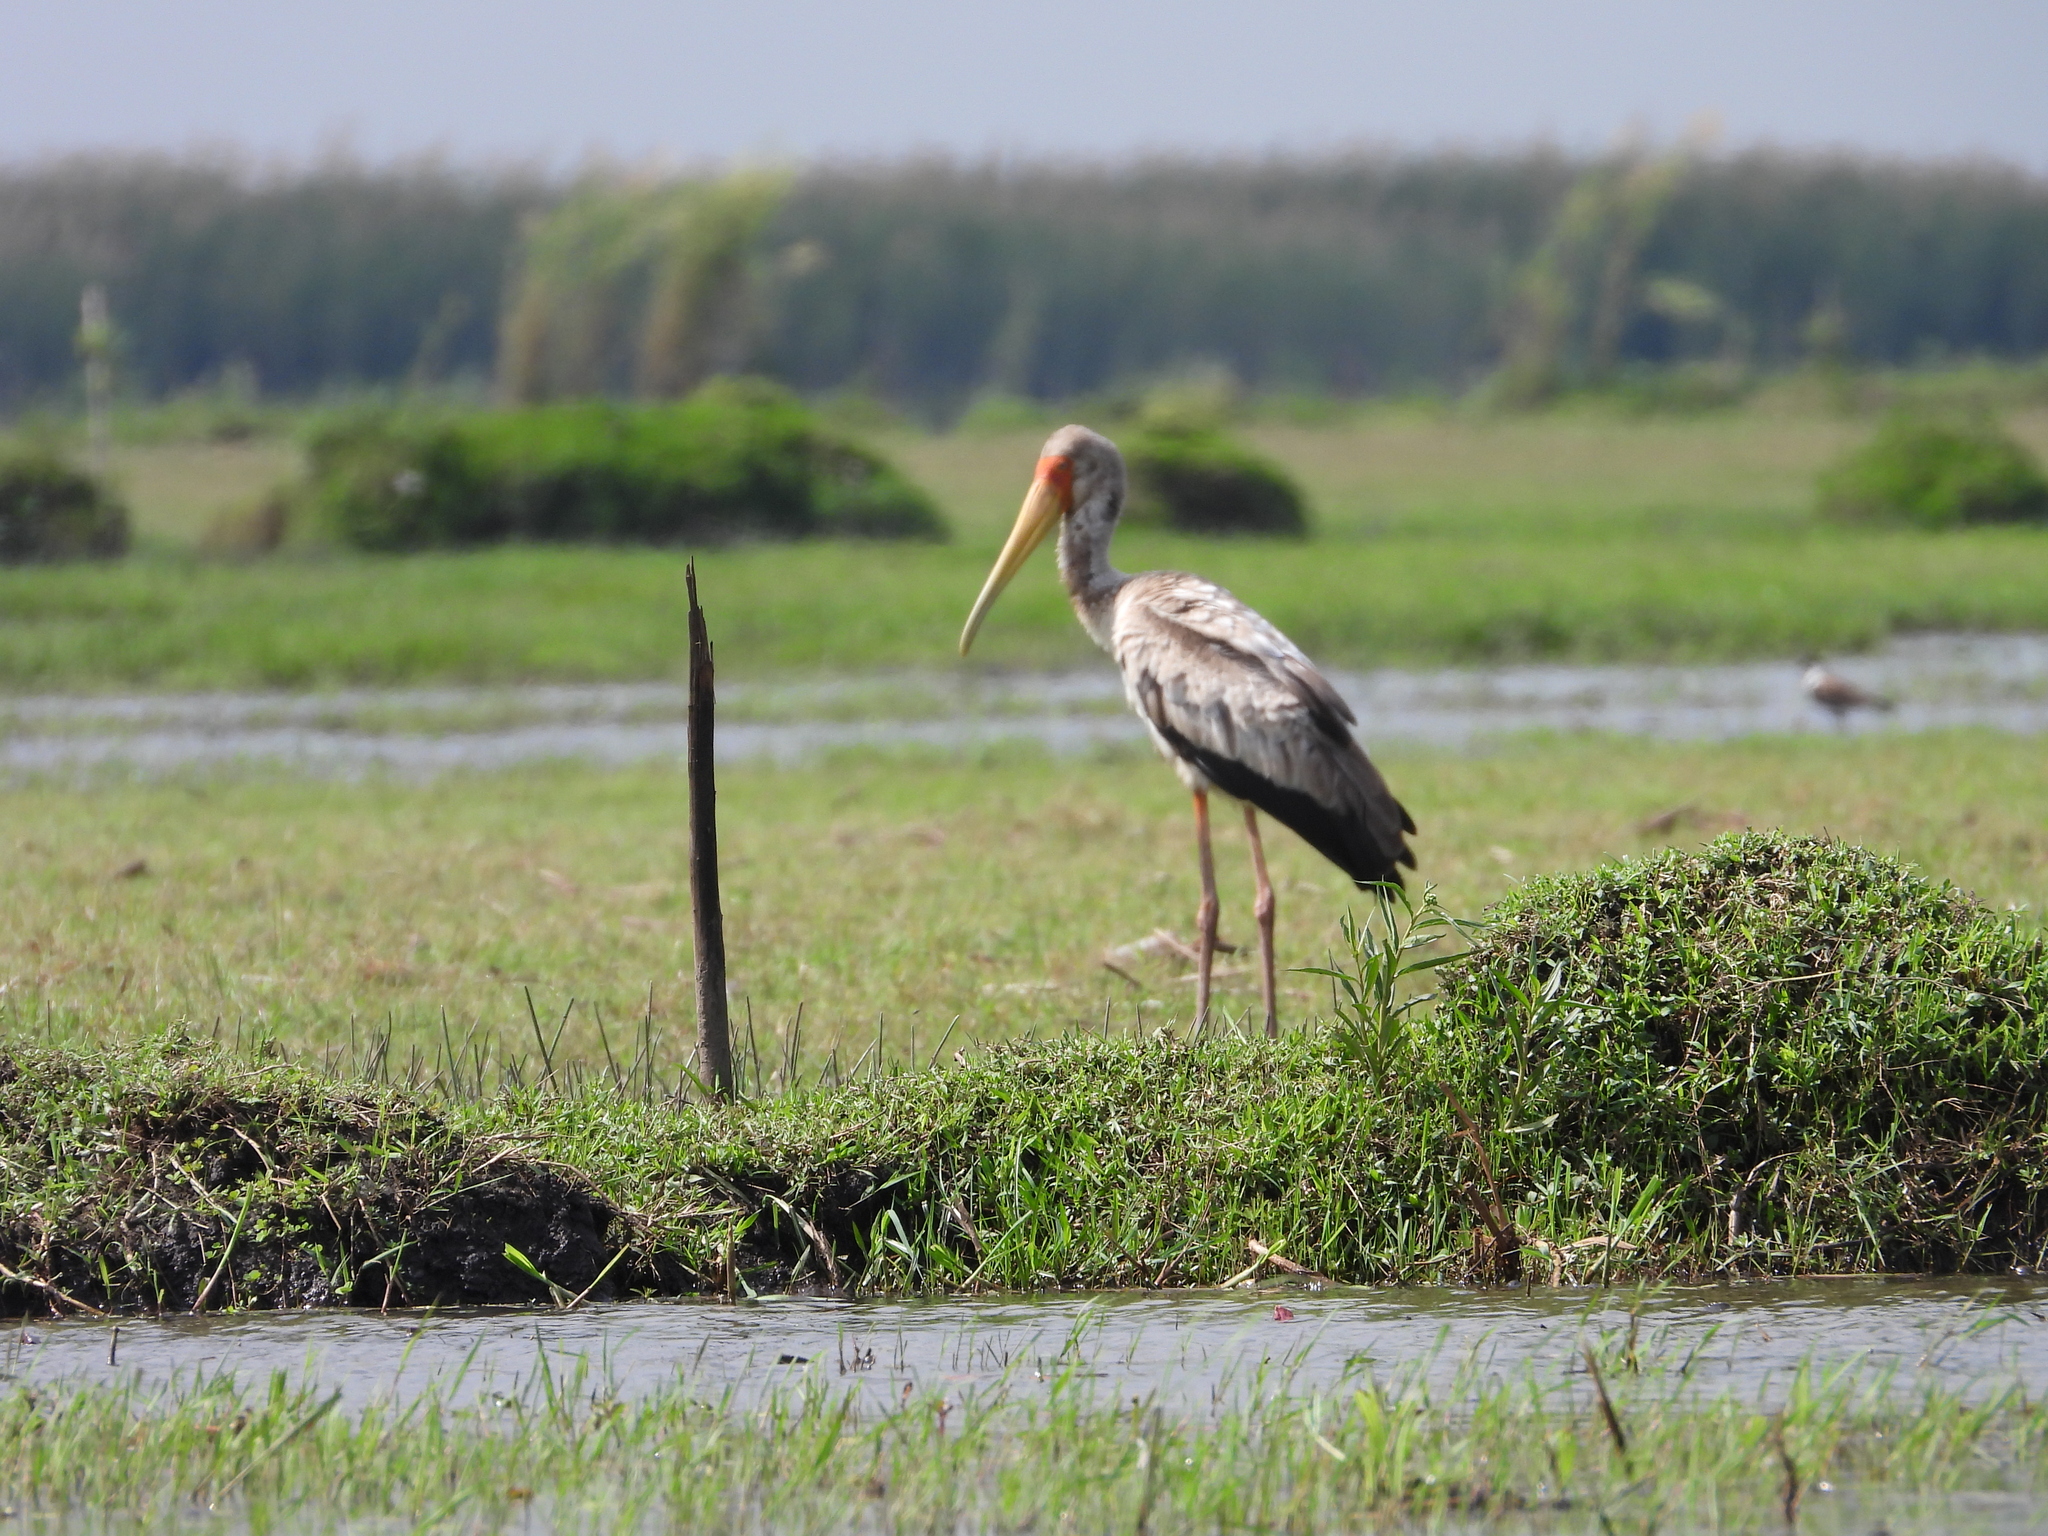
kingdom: Animalia
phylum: Chordata
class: Aves
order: Ciconiiformes
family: Ciconiidae
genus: Mycteria
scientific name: Mycteria ibis
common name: Yellow-billed stork
